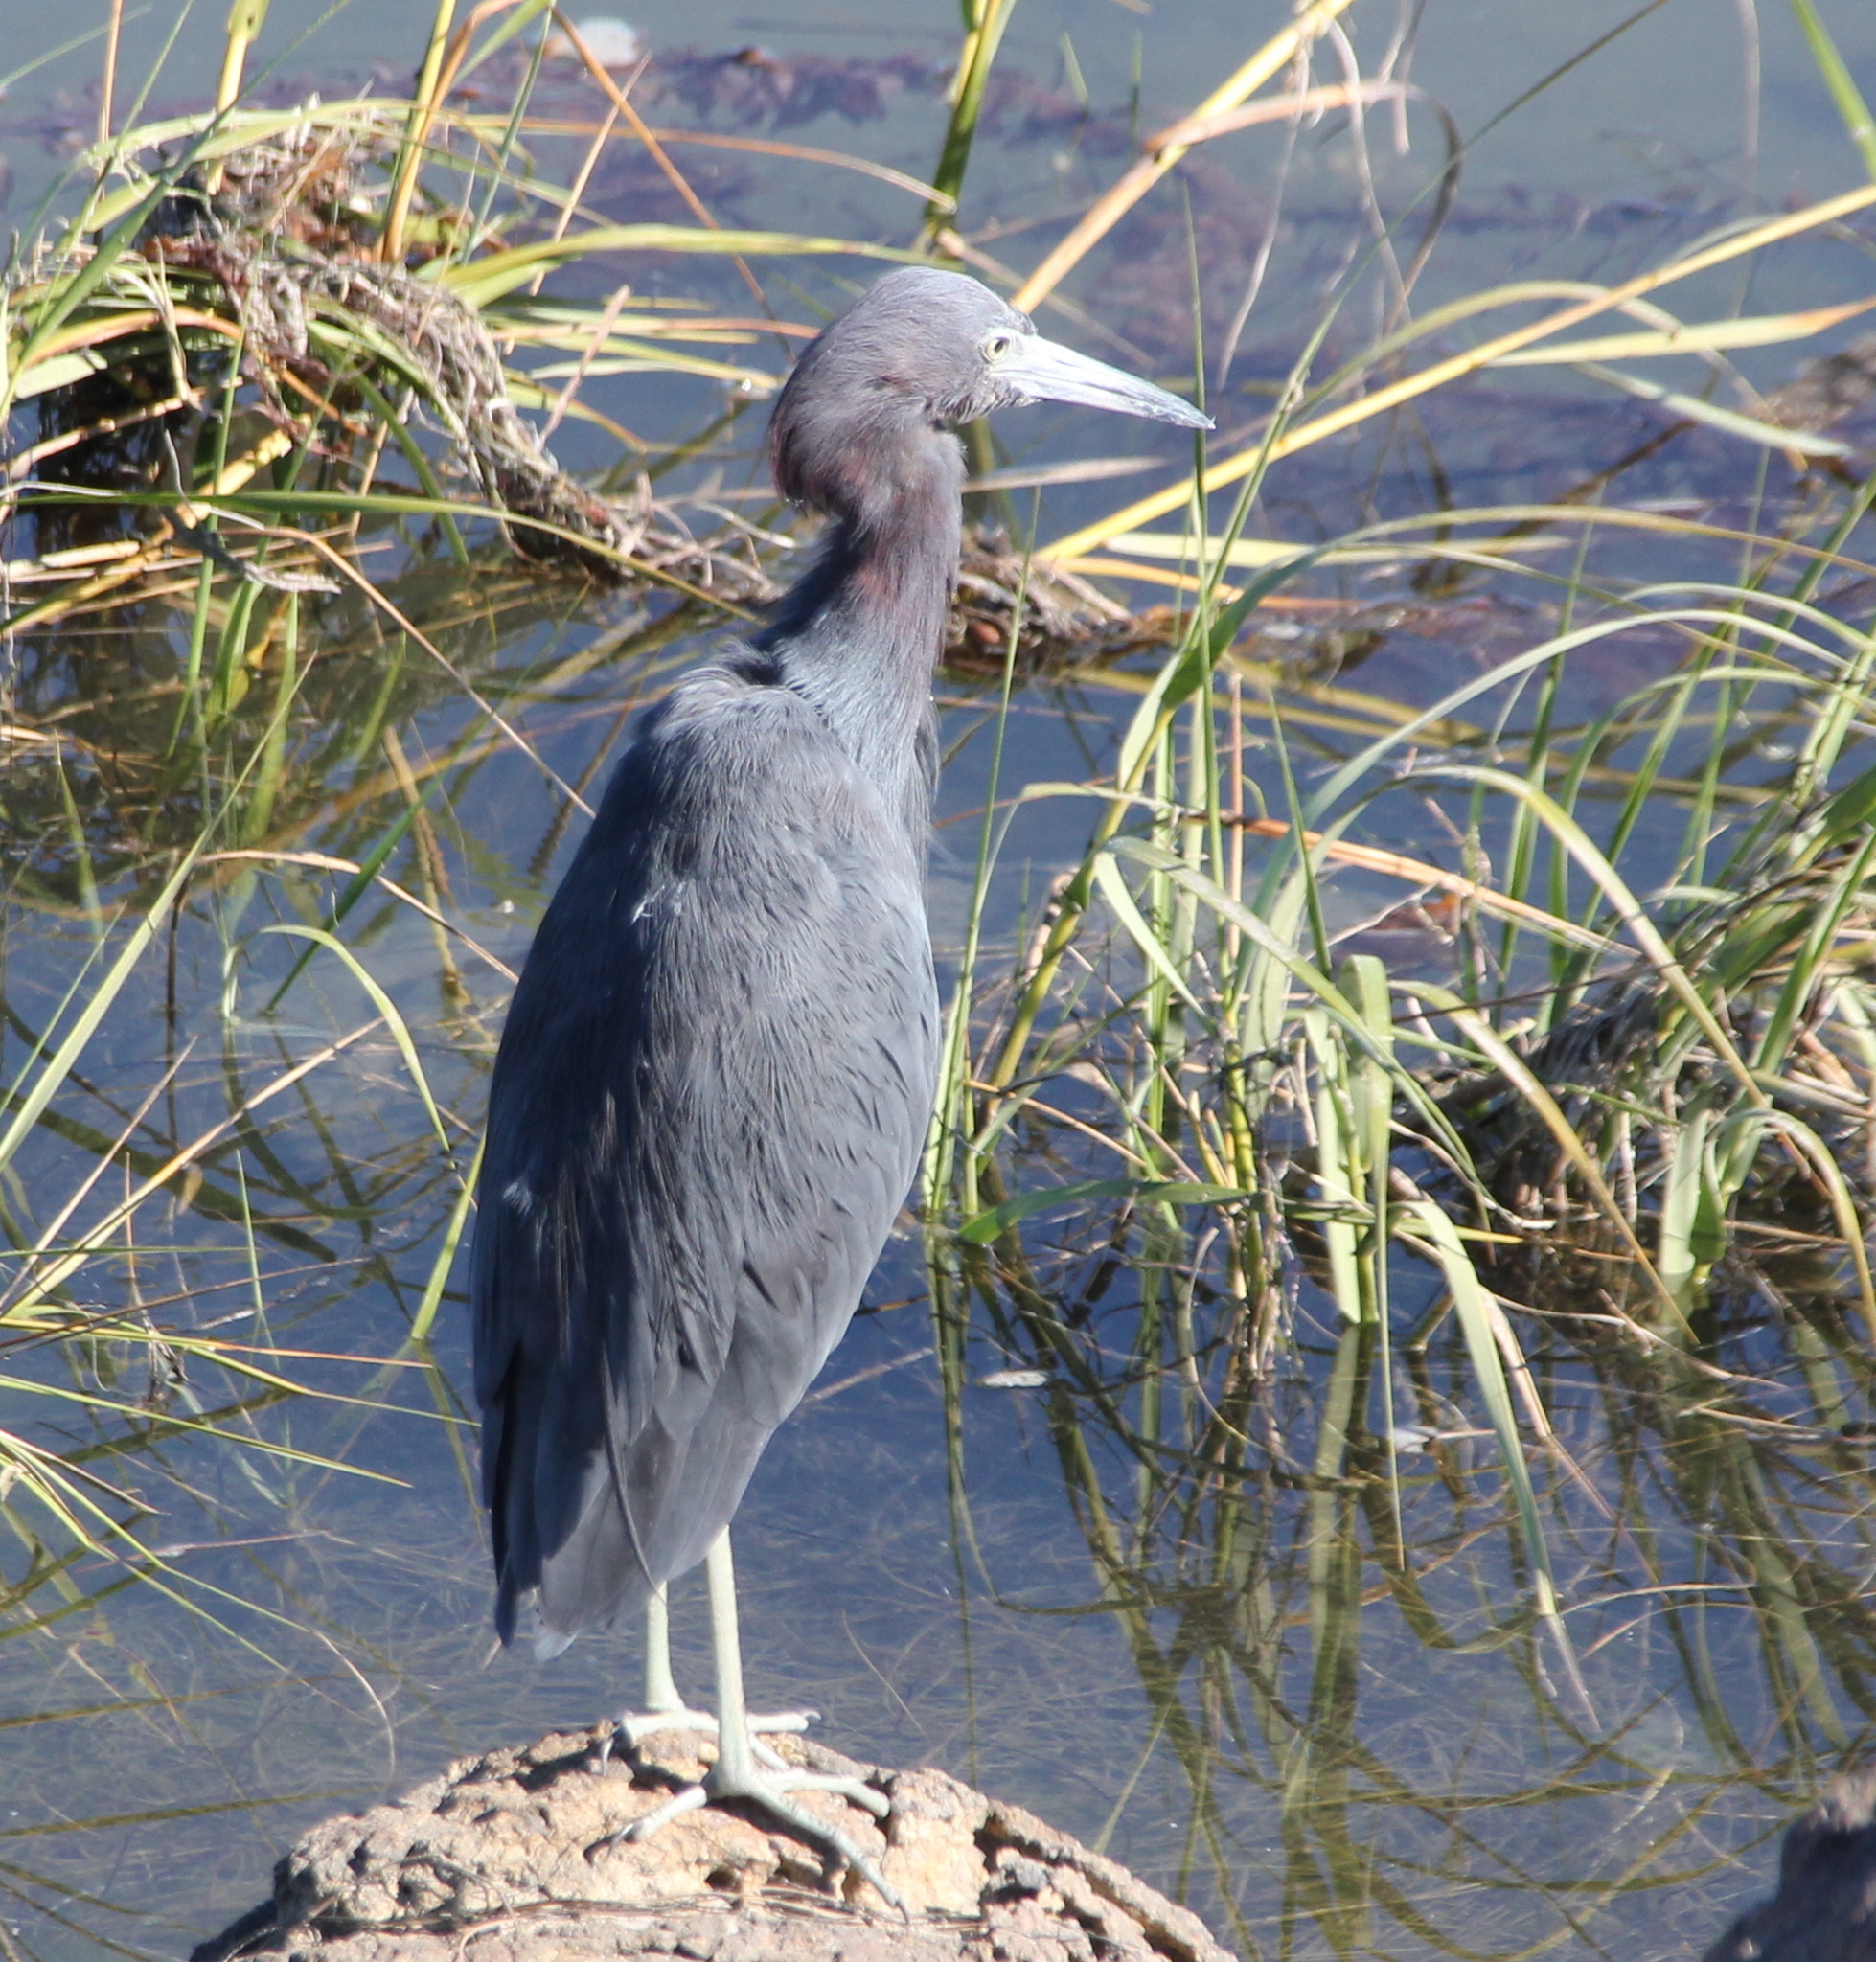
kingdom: Animalia
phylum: Chordata
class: Aves
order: Pelecaniformes
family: Ardeidae
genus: Egretta
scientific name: Egretta caerulea
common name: Little blue heron
